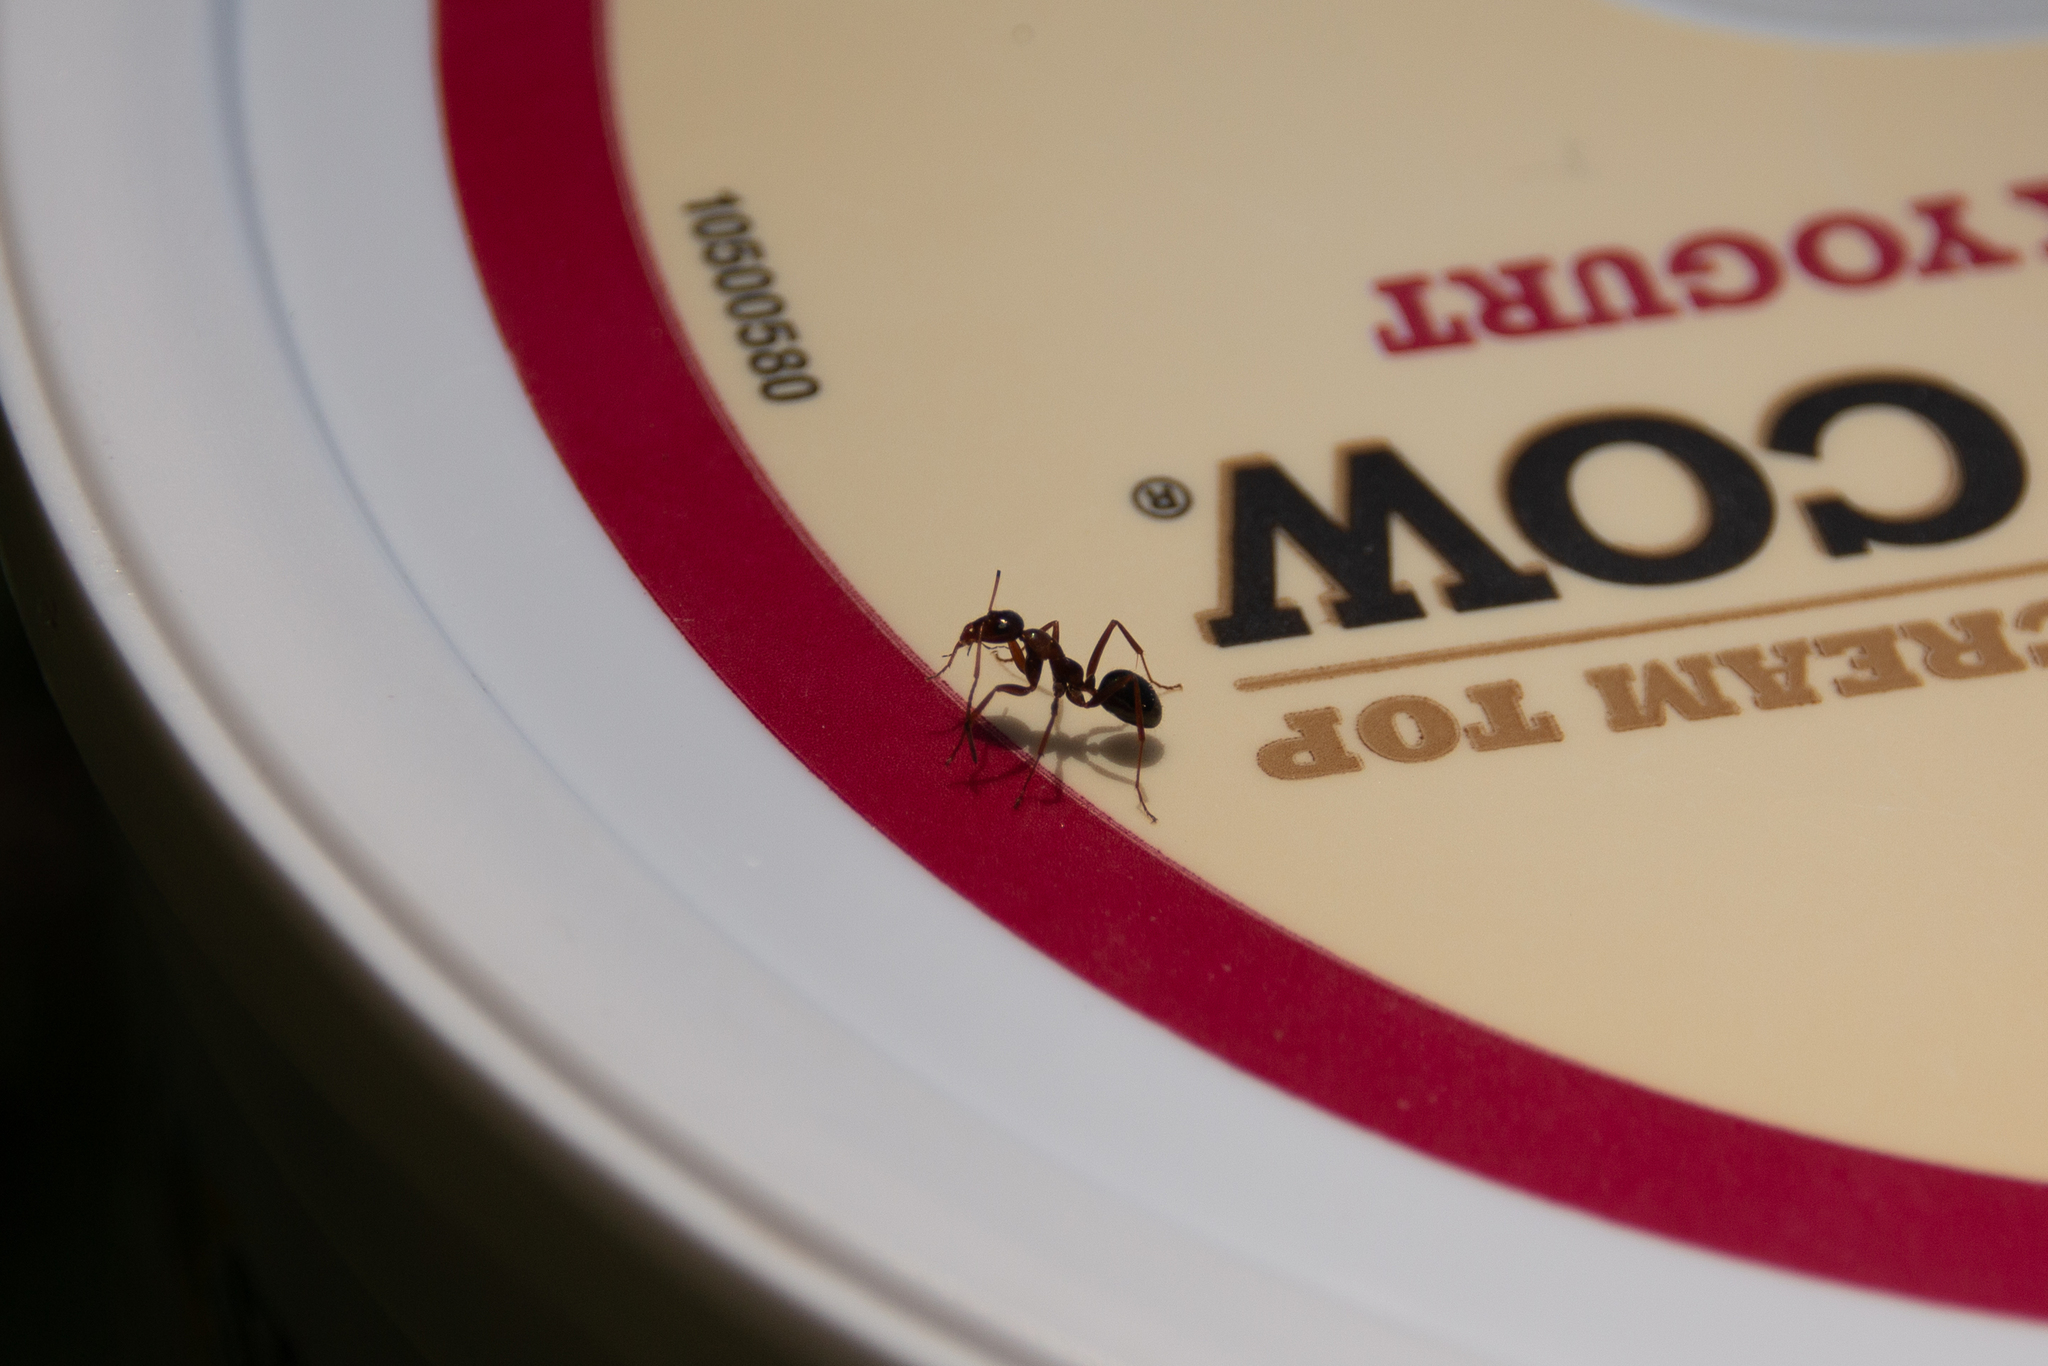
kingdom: Animalia
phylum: Arthropoda
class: Insecta
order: Hymenoptera
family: Formicidae
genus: Formica
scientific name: Formica
